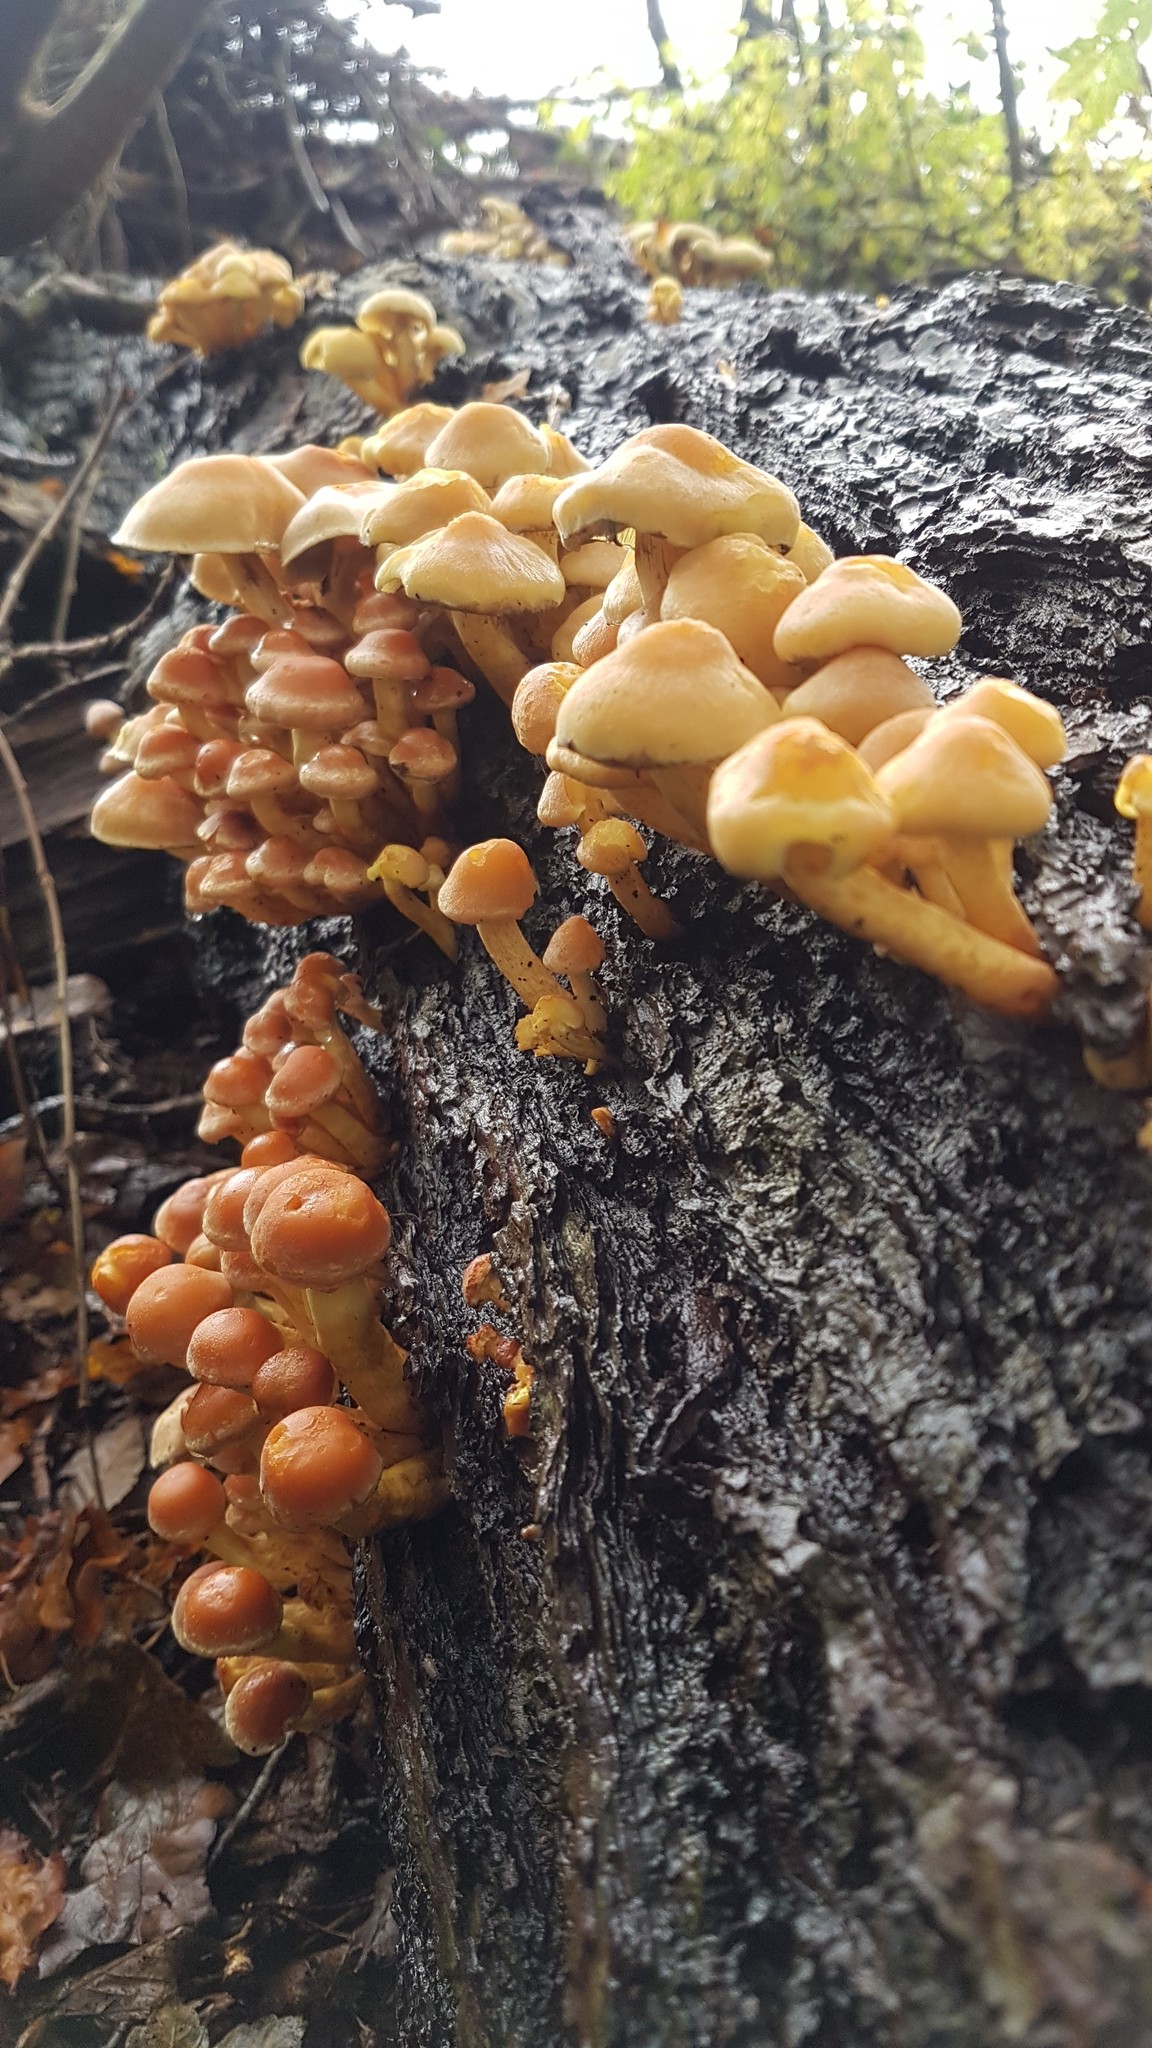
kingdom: Fungi
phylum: Basidiomycota
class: Agaricomycetes
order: Agaricales
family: Strophariaceae
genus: Hypholoma
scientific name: Hypholoma fasciculare
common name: Sulphur tuft
